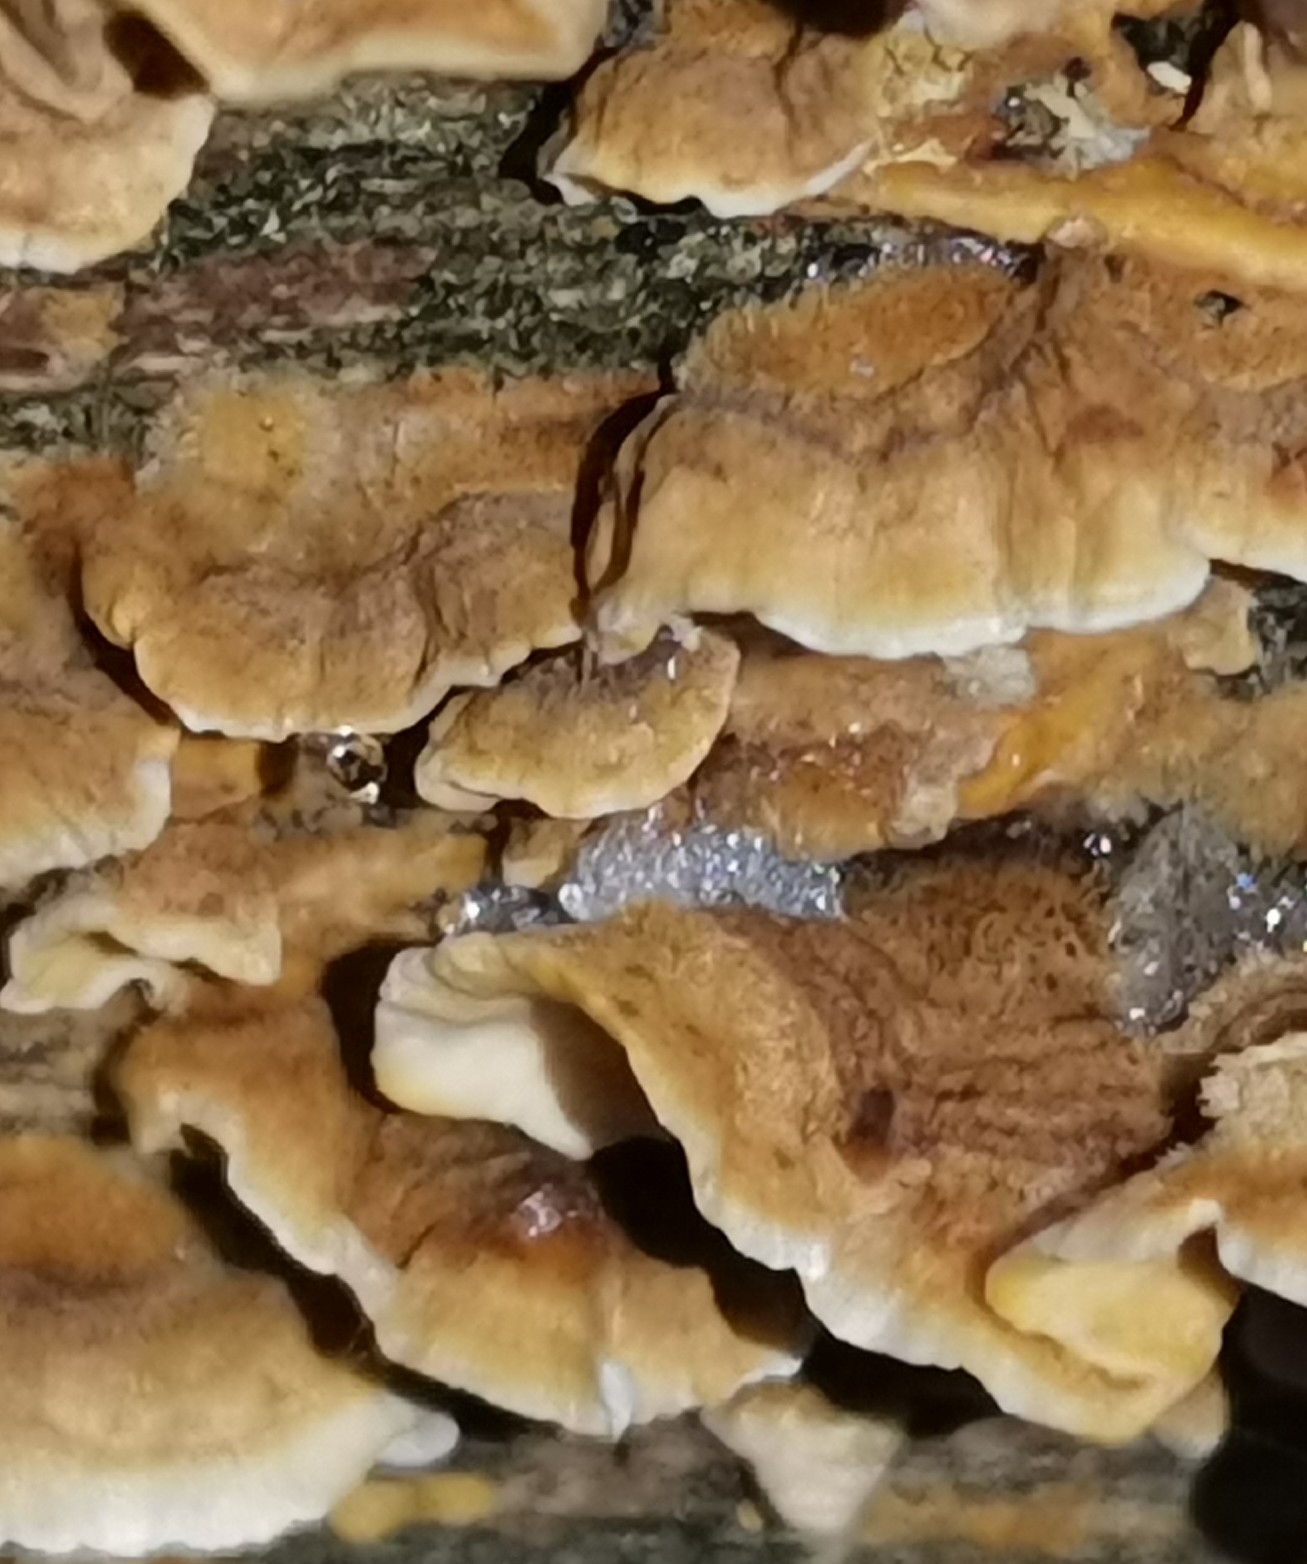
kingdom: Fungi
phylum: Basidiomycota
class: Agaricomycetes
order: Russulales
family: Stereaceae
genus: Stereum
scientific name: Stereum hirsutum
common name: Hairy curtain crust
